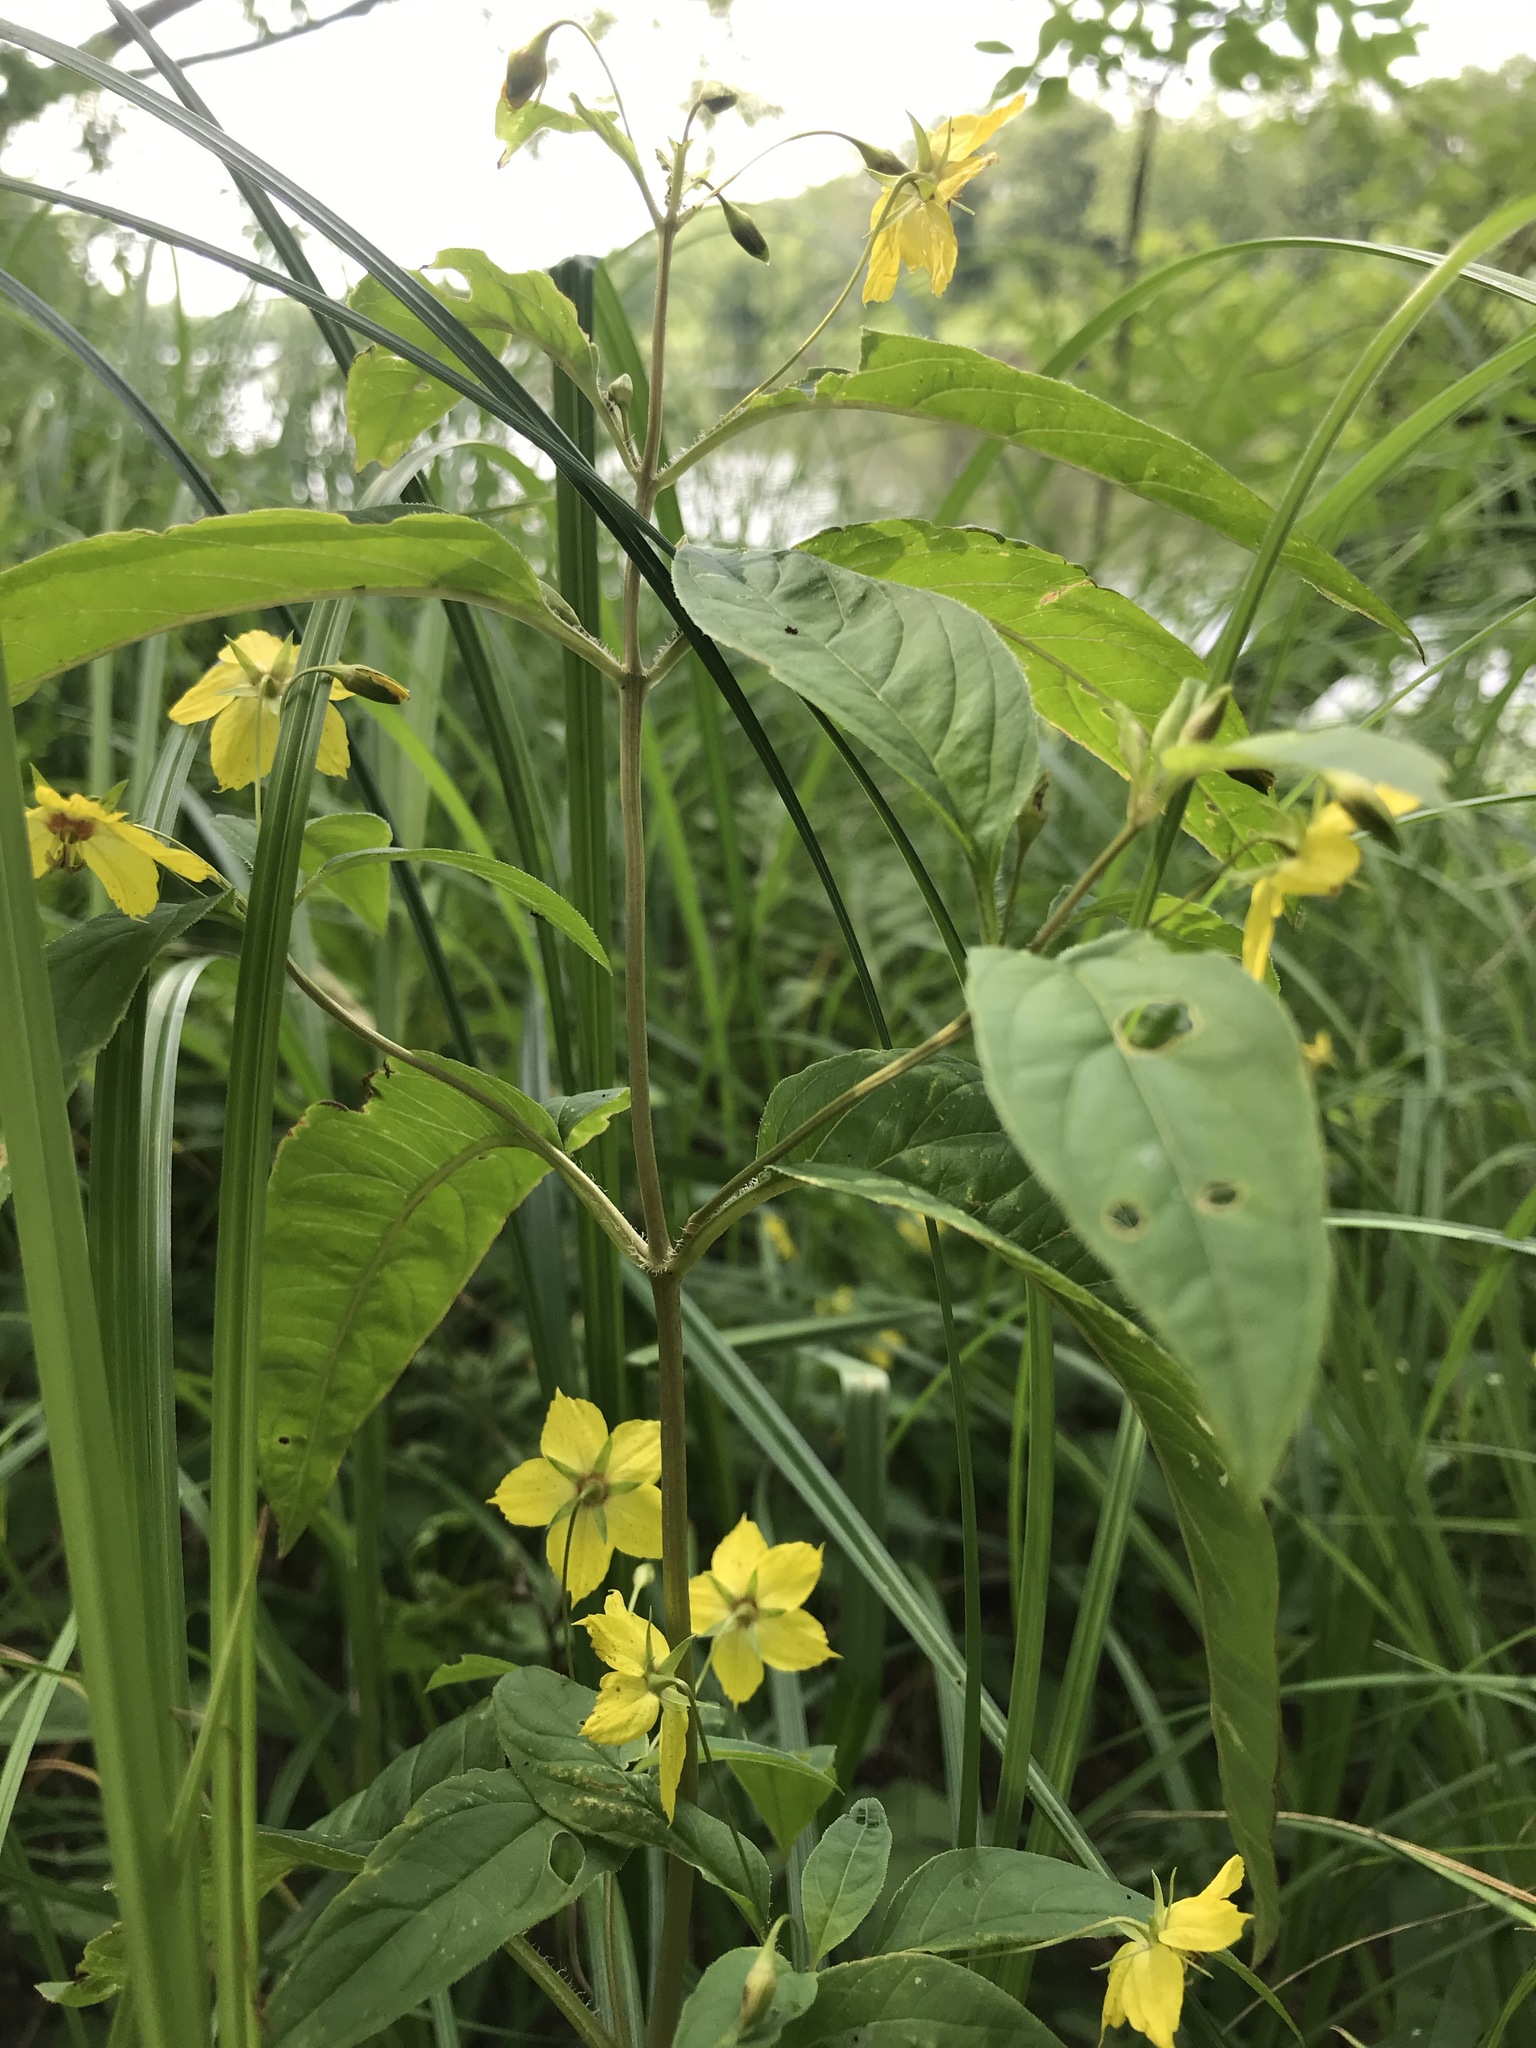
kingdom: Plantae
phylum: Tracheophyta
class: Magnoliopsida
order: Ericales
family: Primulaceae
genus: Lysimachia
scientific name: Lysimachia ciliata
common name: Fringed loosestrife
